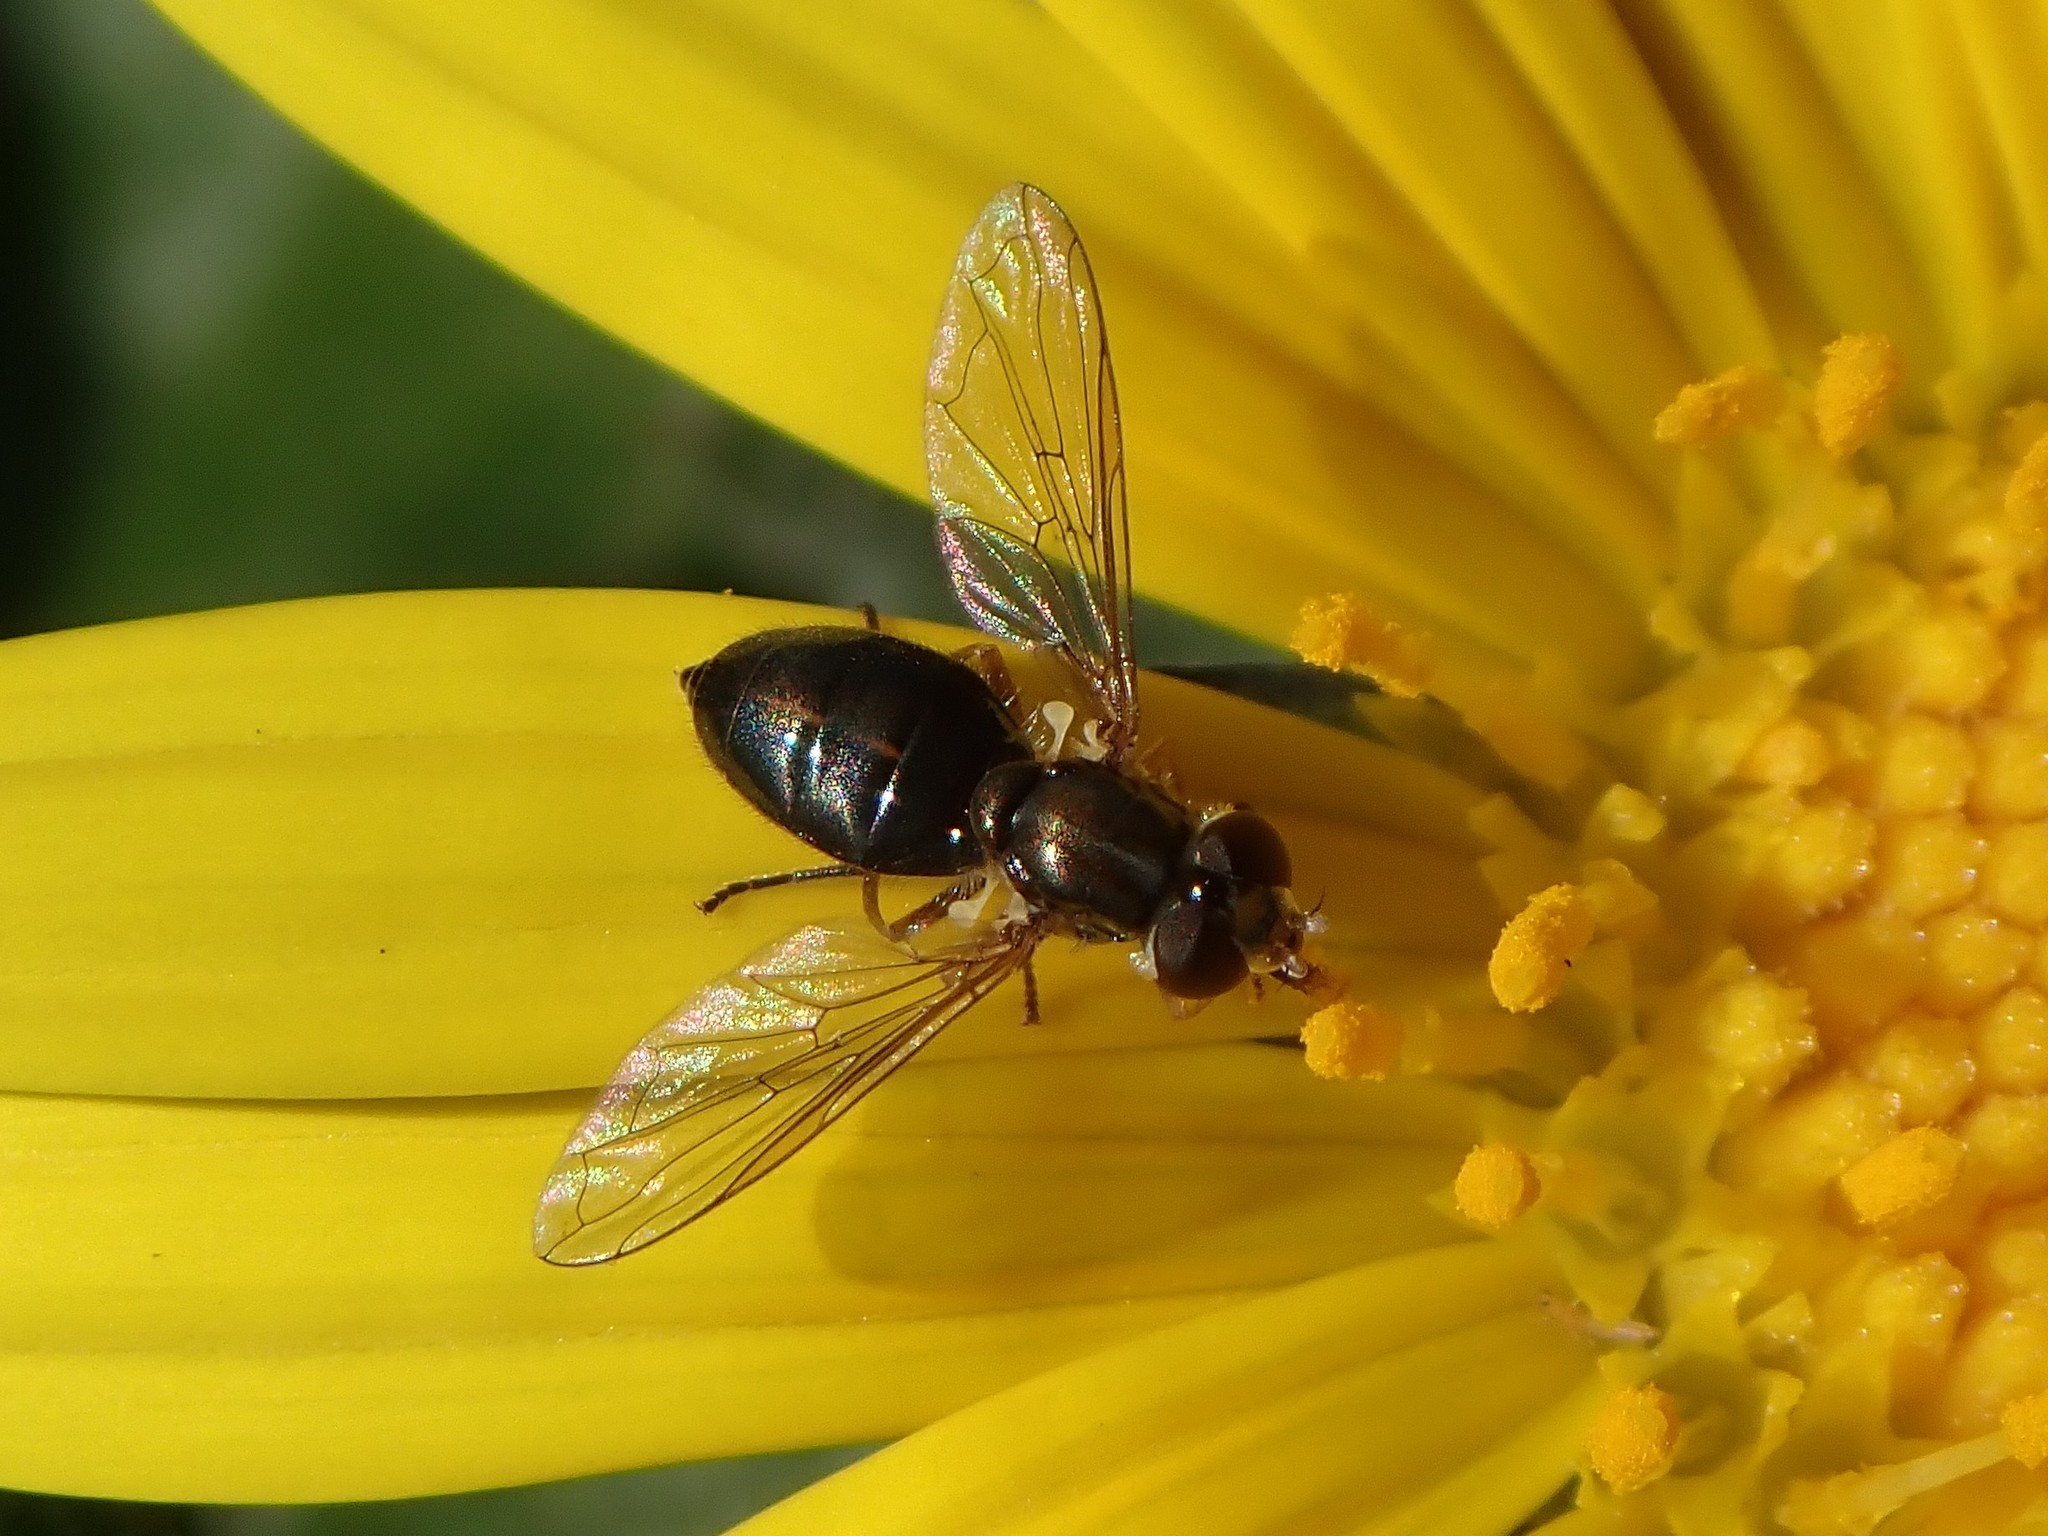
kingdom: Animalia
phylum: Arthropoda
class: Insecta
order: Diptera
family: Syrphidae
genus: Toxomerus
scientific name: Toxomerus marginatus
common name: Syrphid fly
